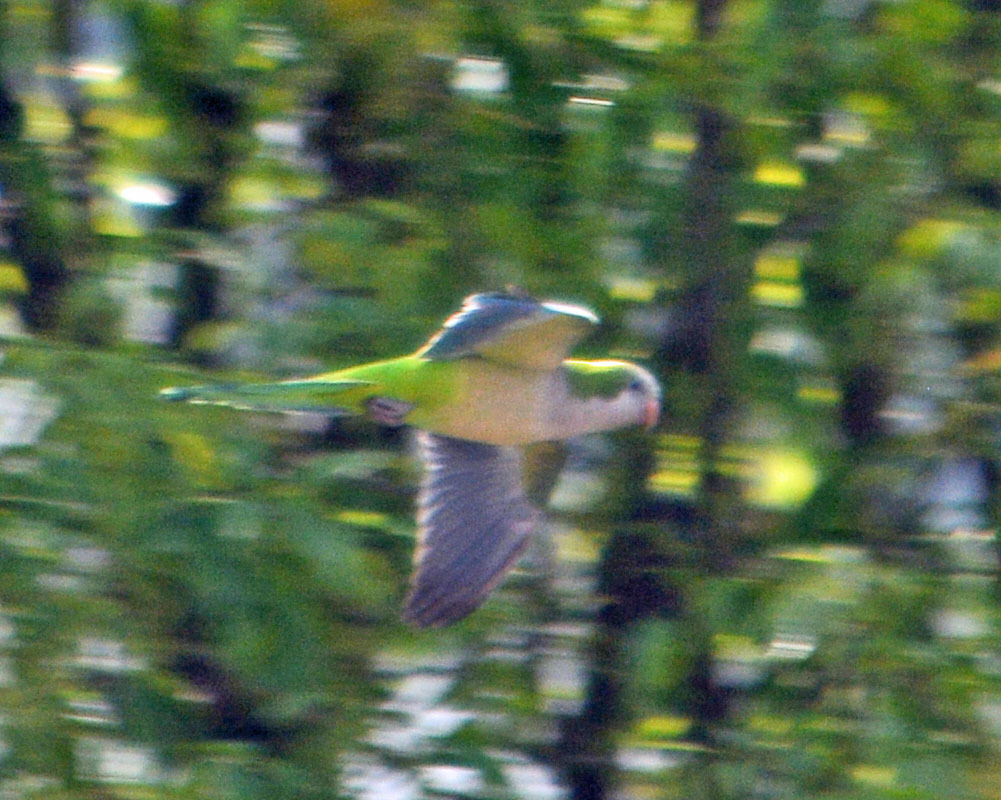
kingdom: Animalia
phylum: Chordata
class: Aves
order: Psittaciformes
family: Psittacidae
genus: Myiopsitta
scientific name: Myiopsitta monachus
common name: Monk parakeet
